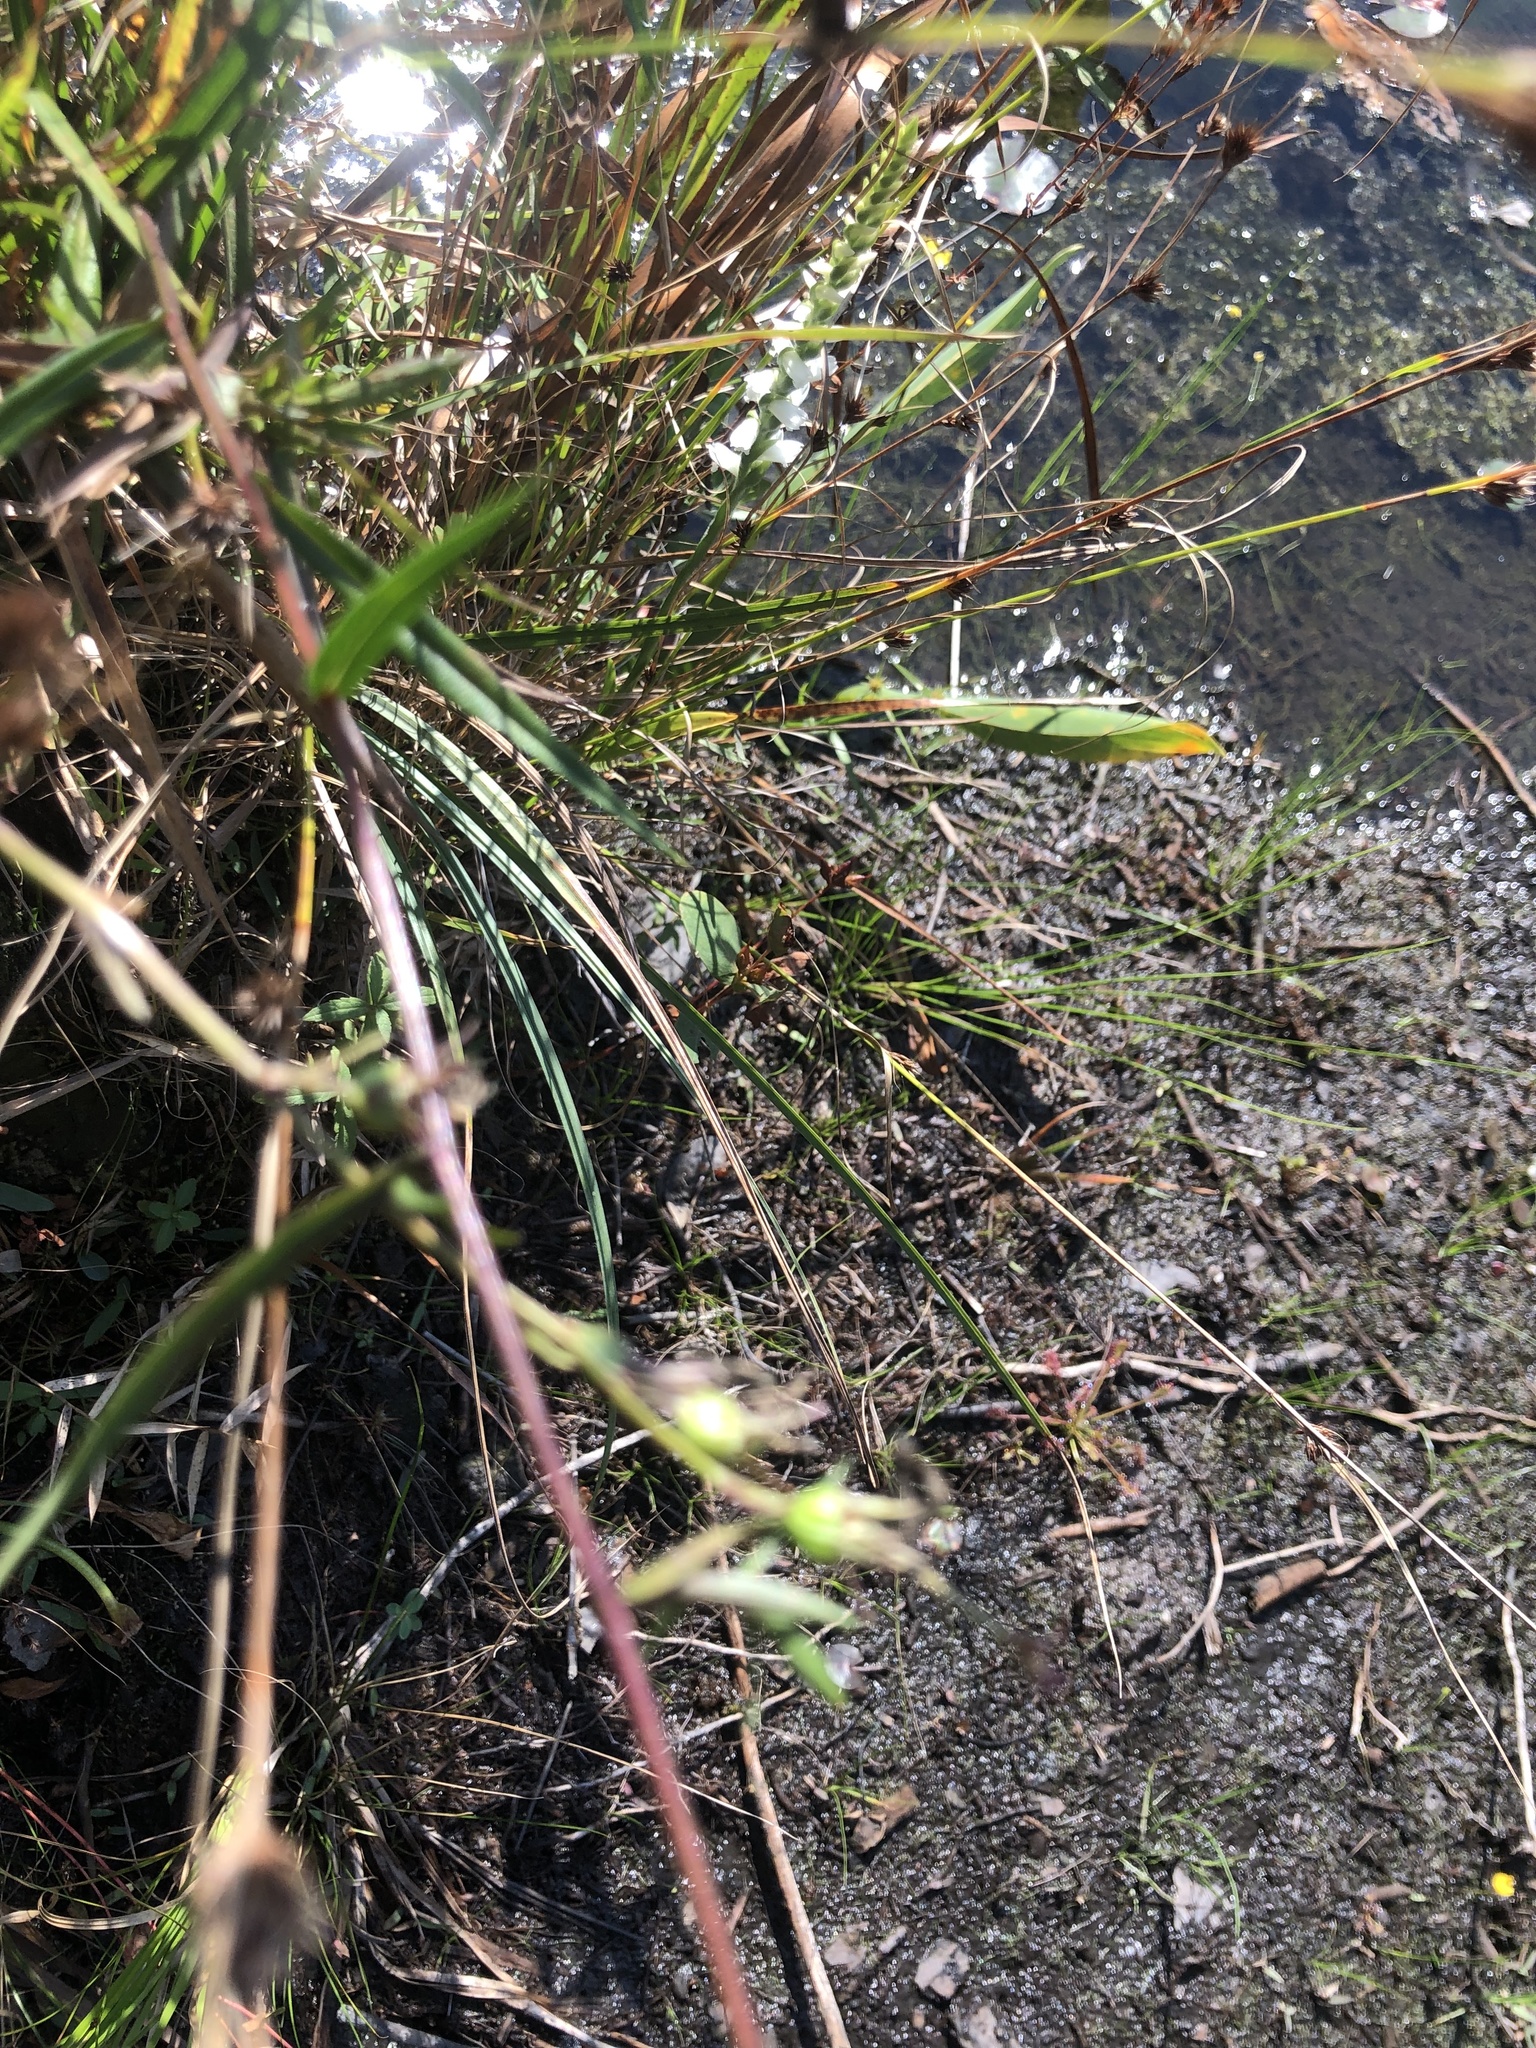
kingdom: Plantae
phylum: Tracheophyta
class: Magnoliopsida
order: Asterales
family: Asteraceae
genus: Eurybia
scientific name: Eurybia paludosa
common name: Southern swamp aster
